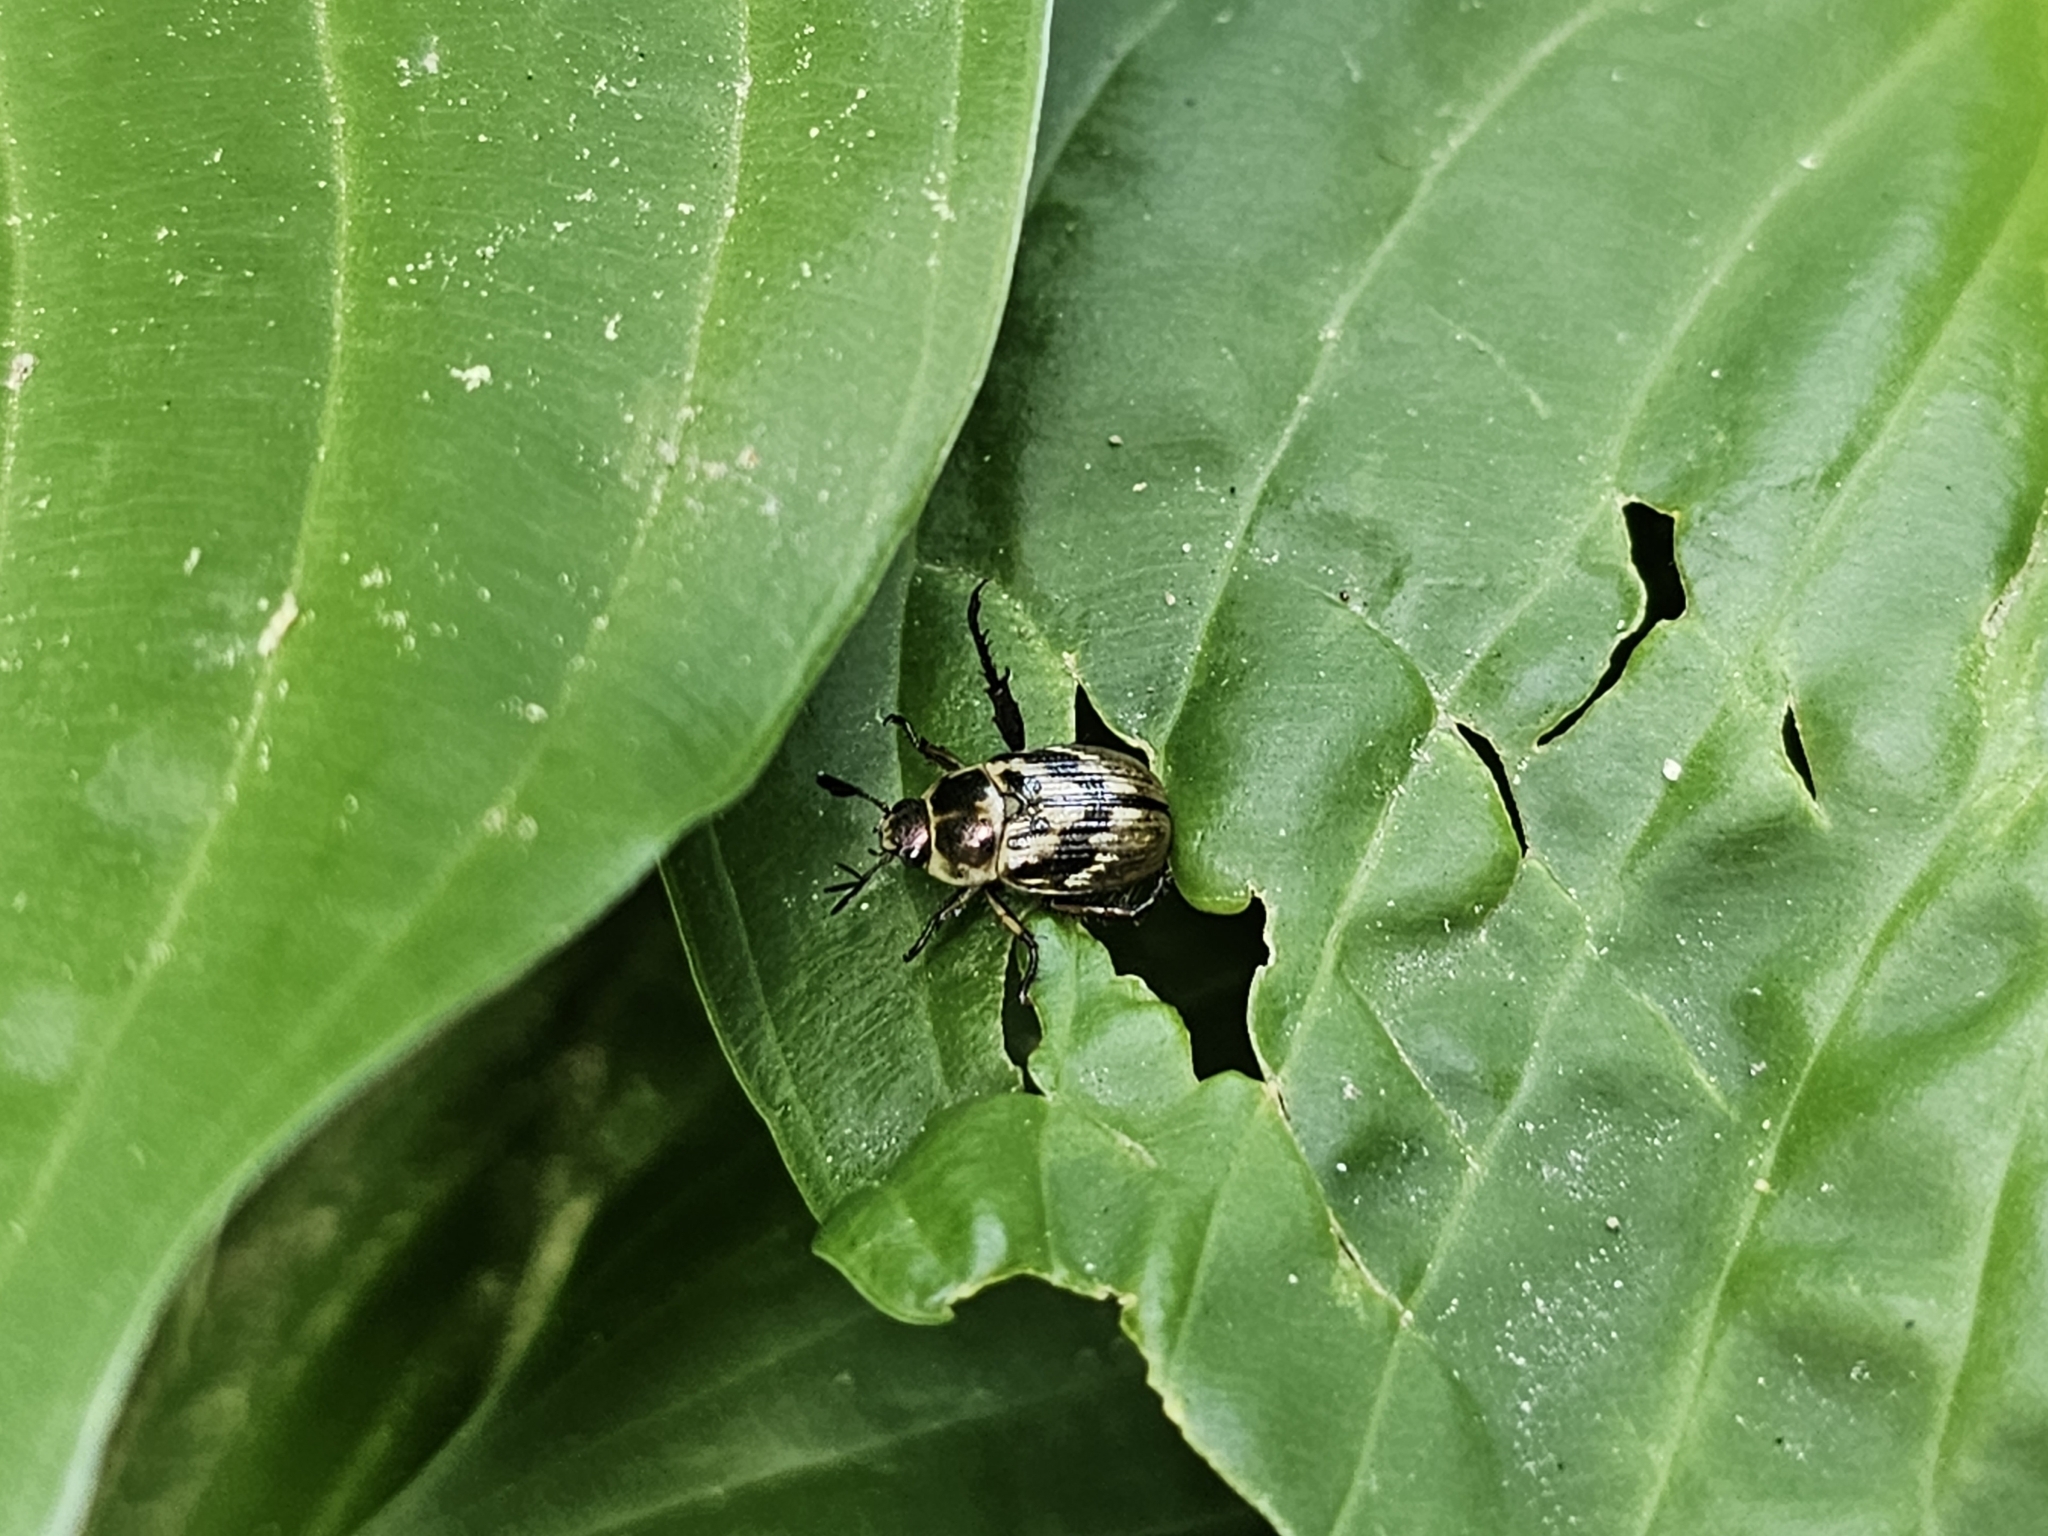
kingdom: Animalia
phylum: Arthropoda
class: Insecta
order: Coleoptera
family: Scarabaeidae
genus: Exomala
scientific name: Exomala orientalis
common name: Oriental beetle
